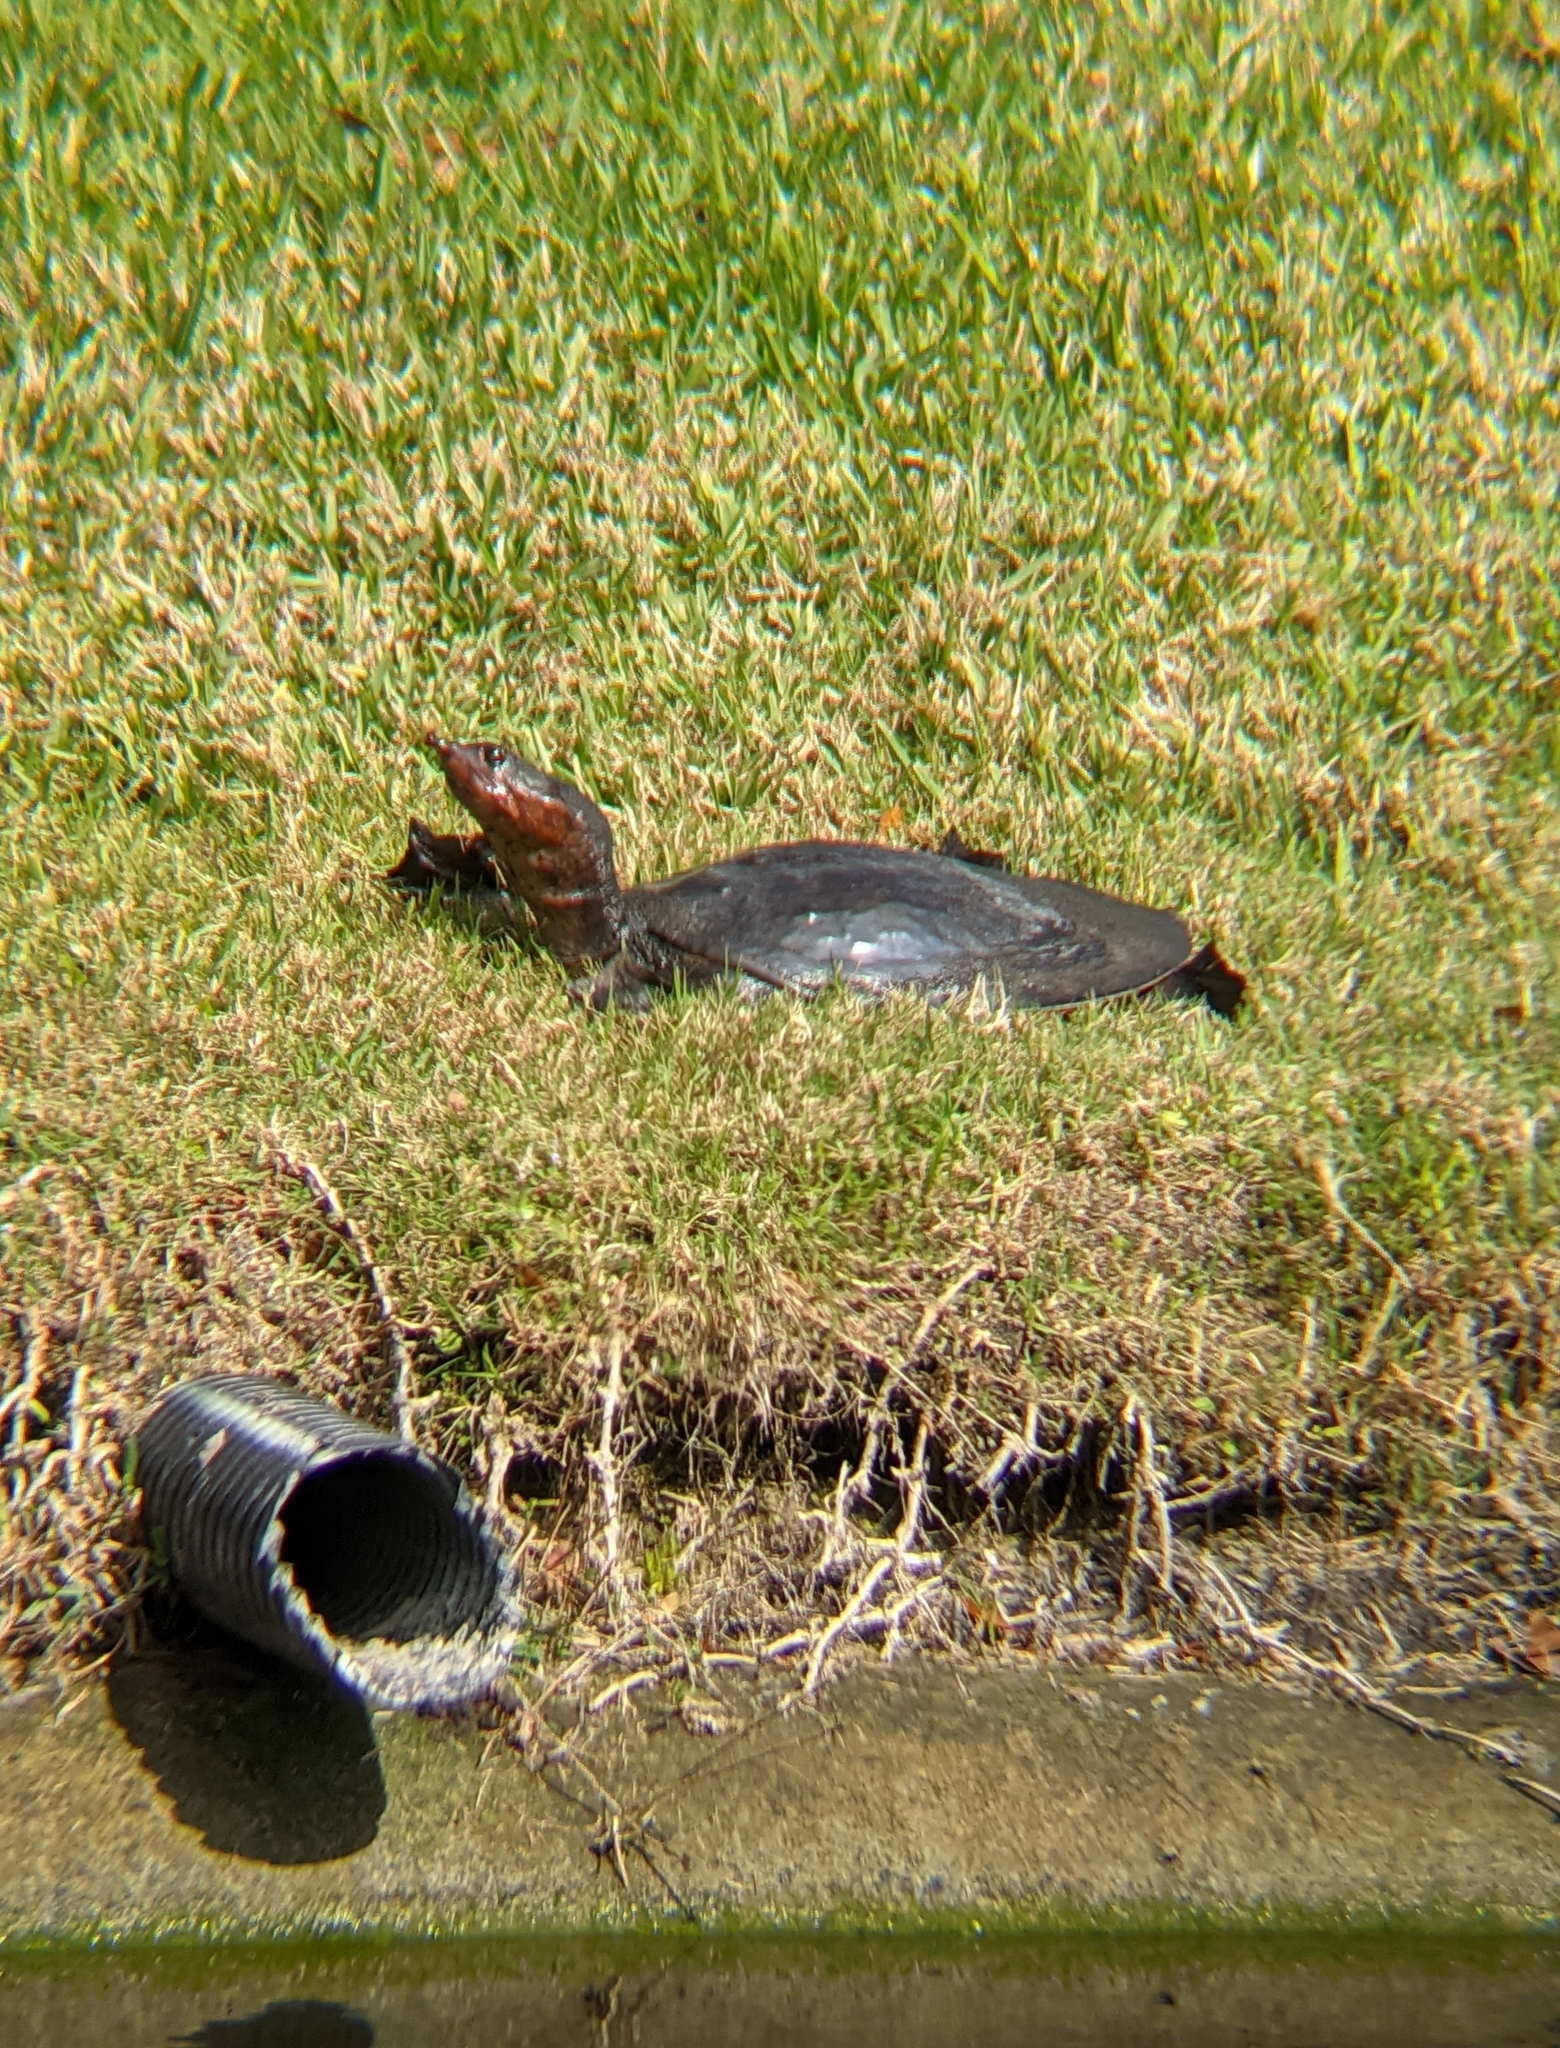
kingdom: Animalia
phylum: Chordata
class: Testudines
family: Trionychidae
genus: Apalone
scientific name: Apalone ferox
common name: Florida softshell turtle
